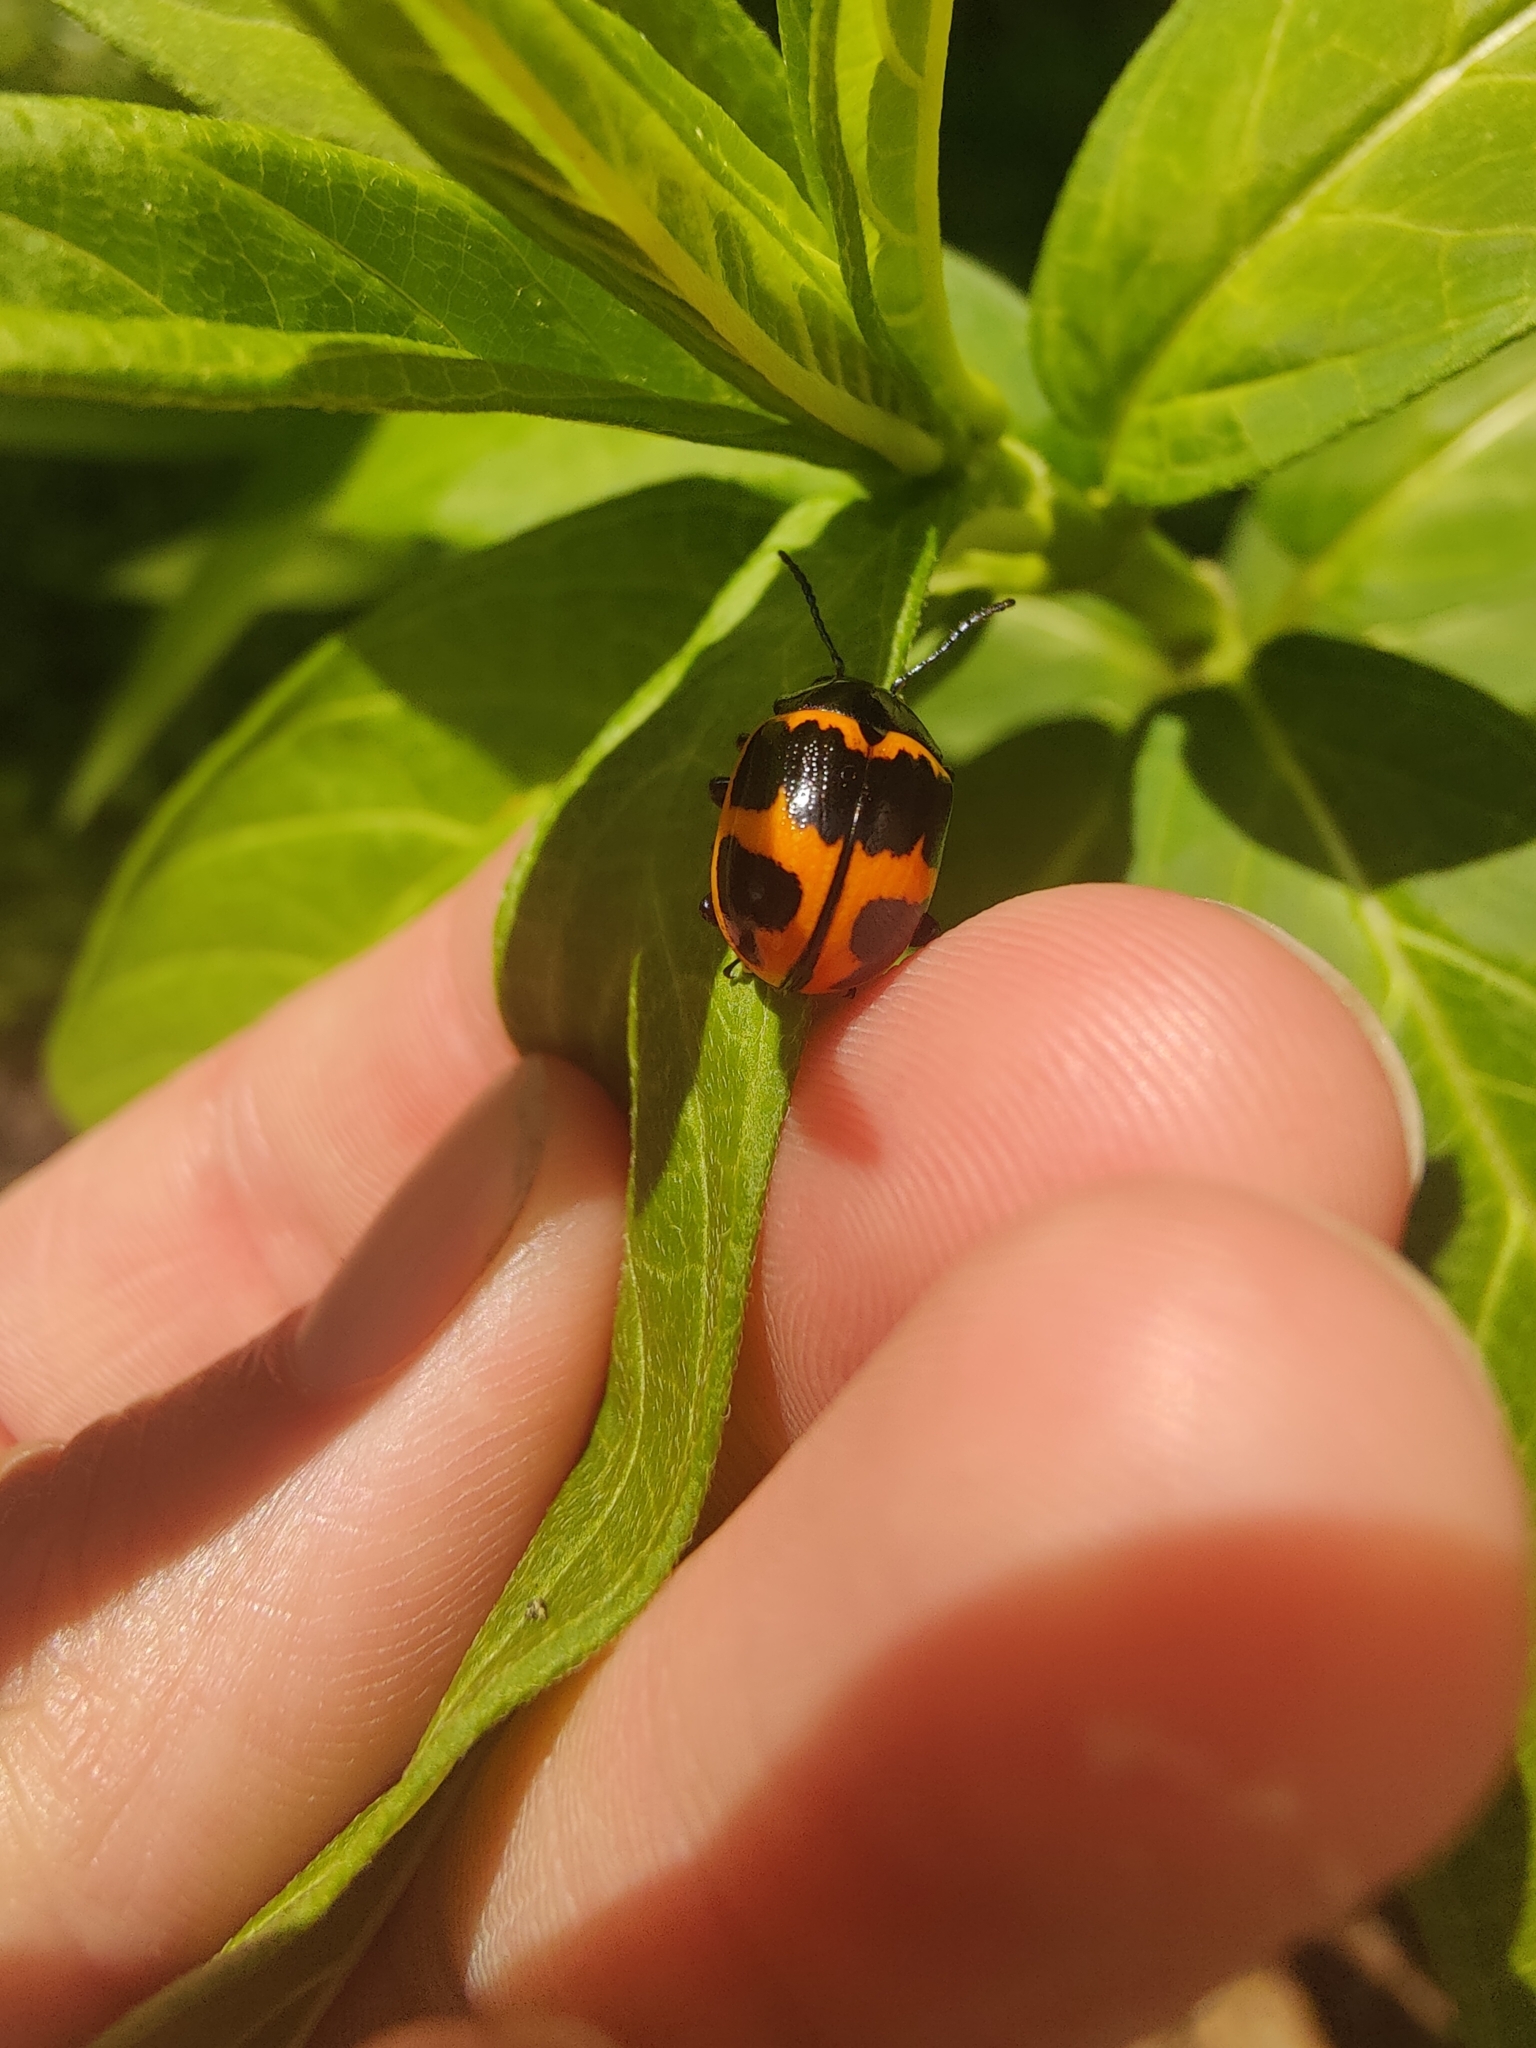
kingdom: Animalia
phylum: Arthropoda
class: Insecta
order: Coleoptera
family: Chrysomelidae
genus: Labidomera
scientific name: Labidomera clivicollis
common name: Swamp milkweed leaf beetle
